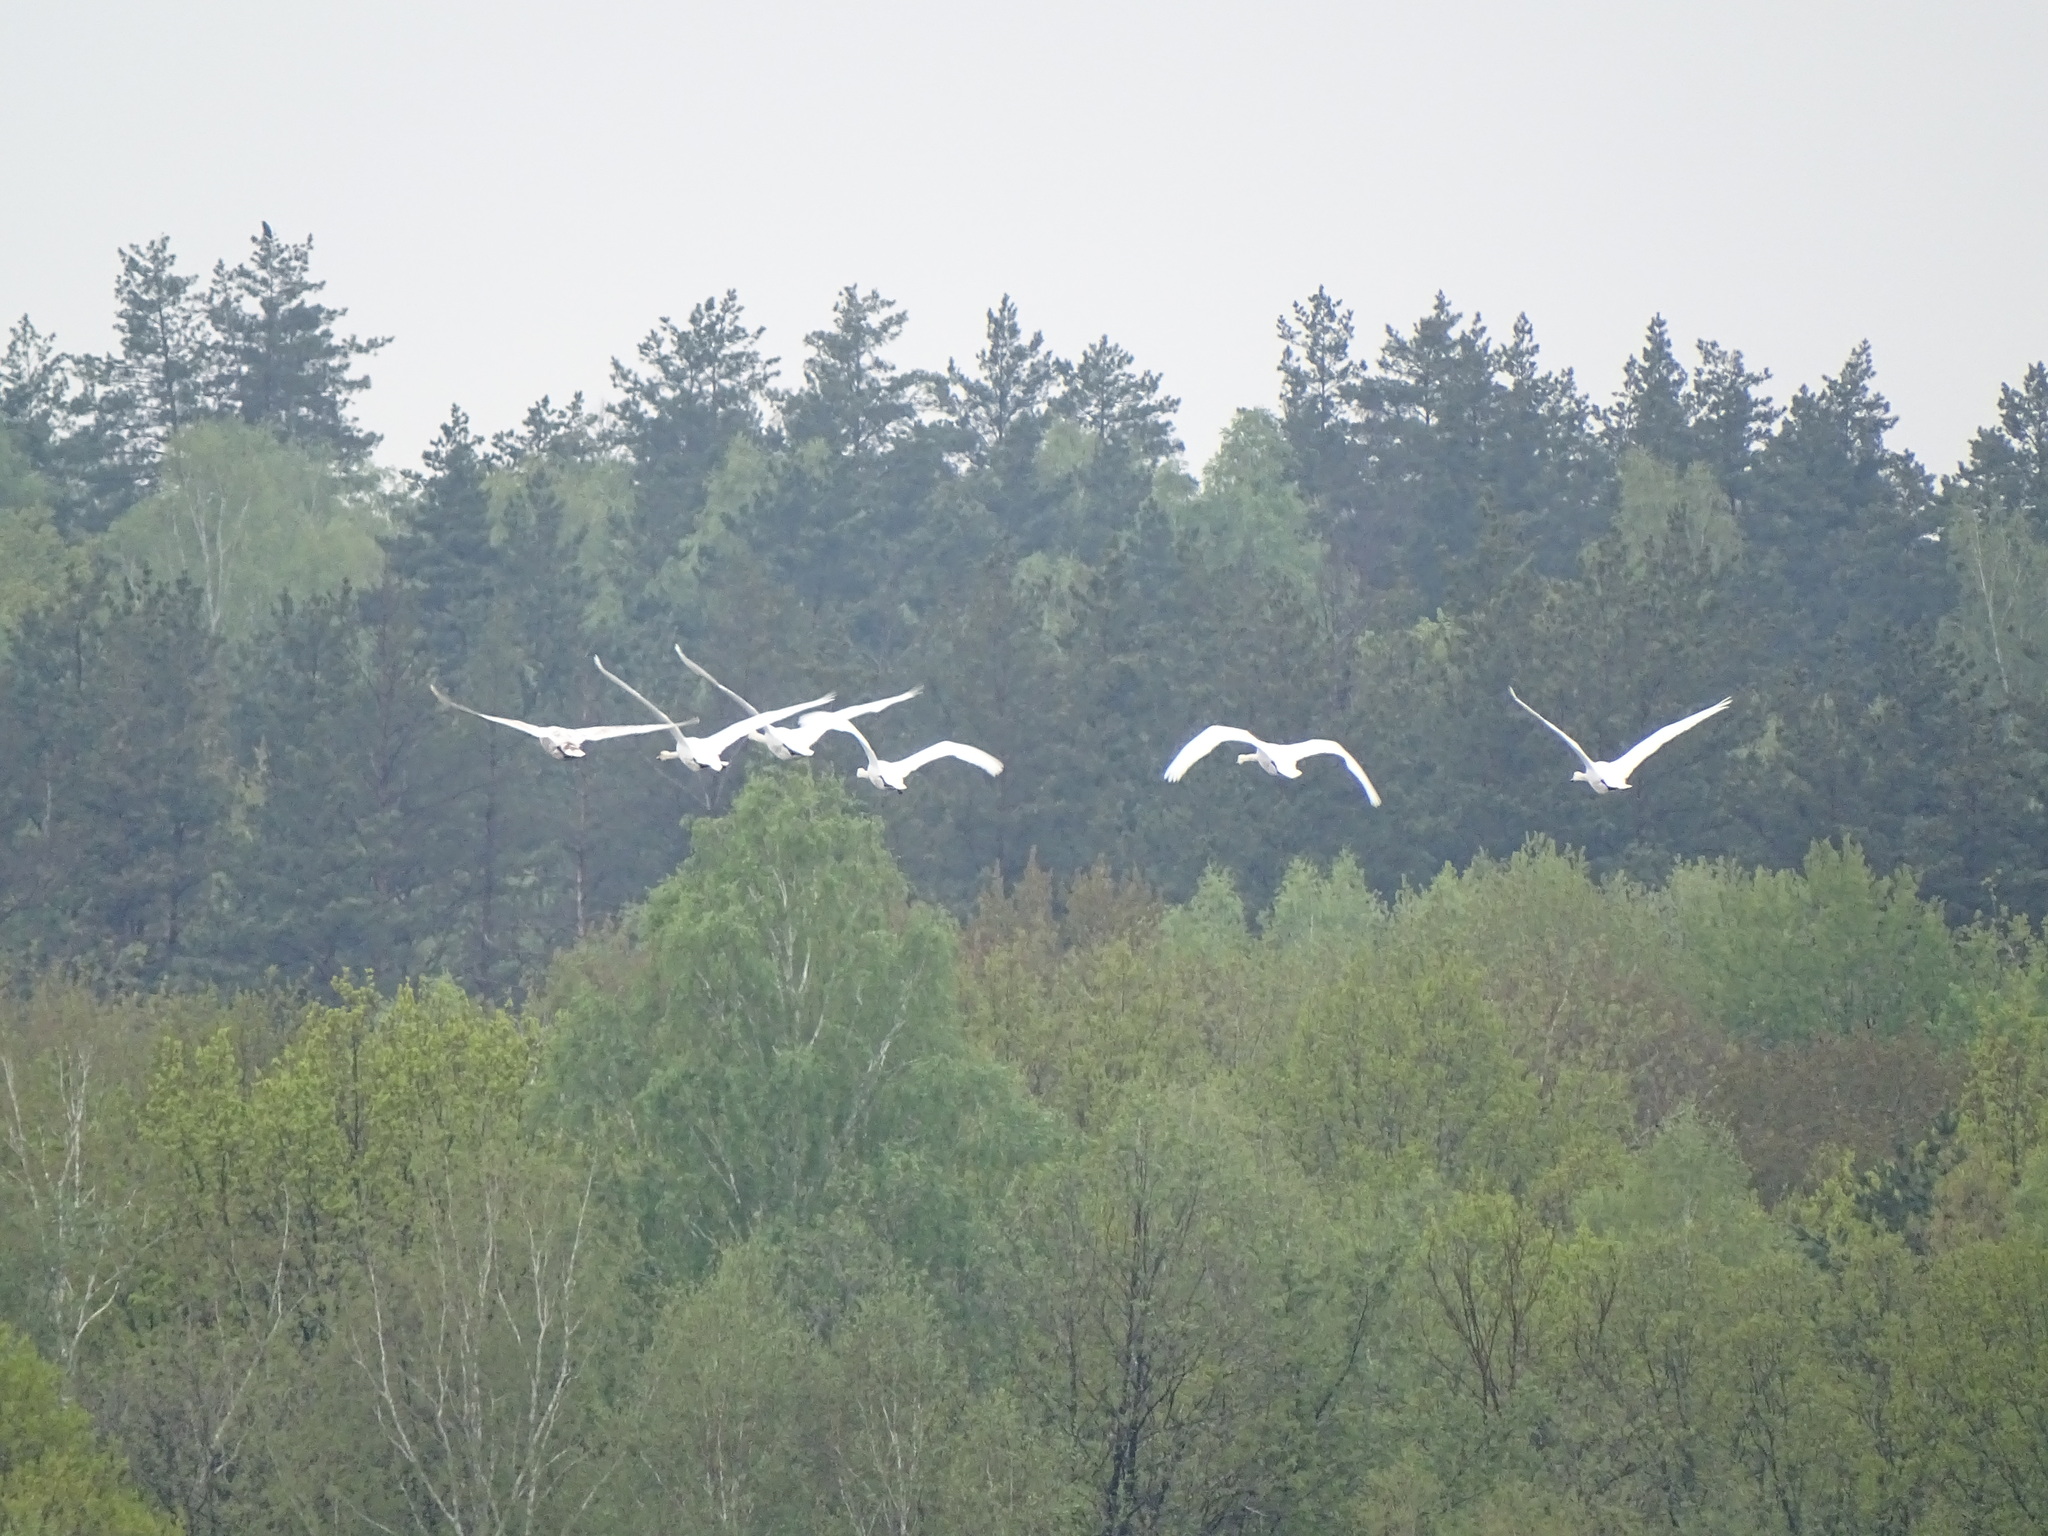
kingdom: Animalia
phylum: Chordata
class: Aves
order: Anseriformes
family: Anatidae
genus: Cygnus
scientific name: Cygnus olor
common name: Mute swan
